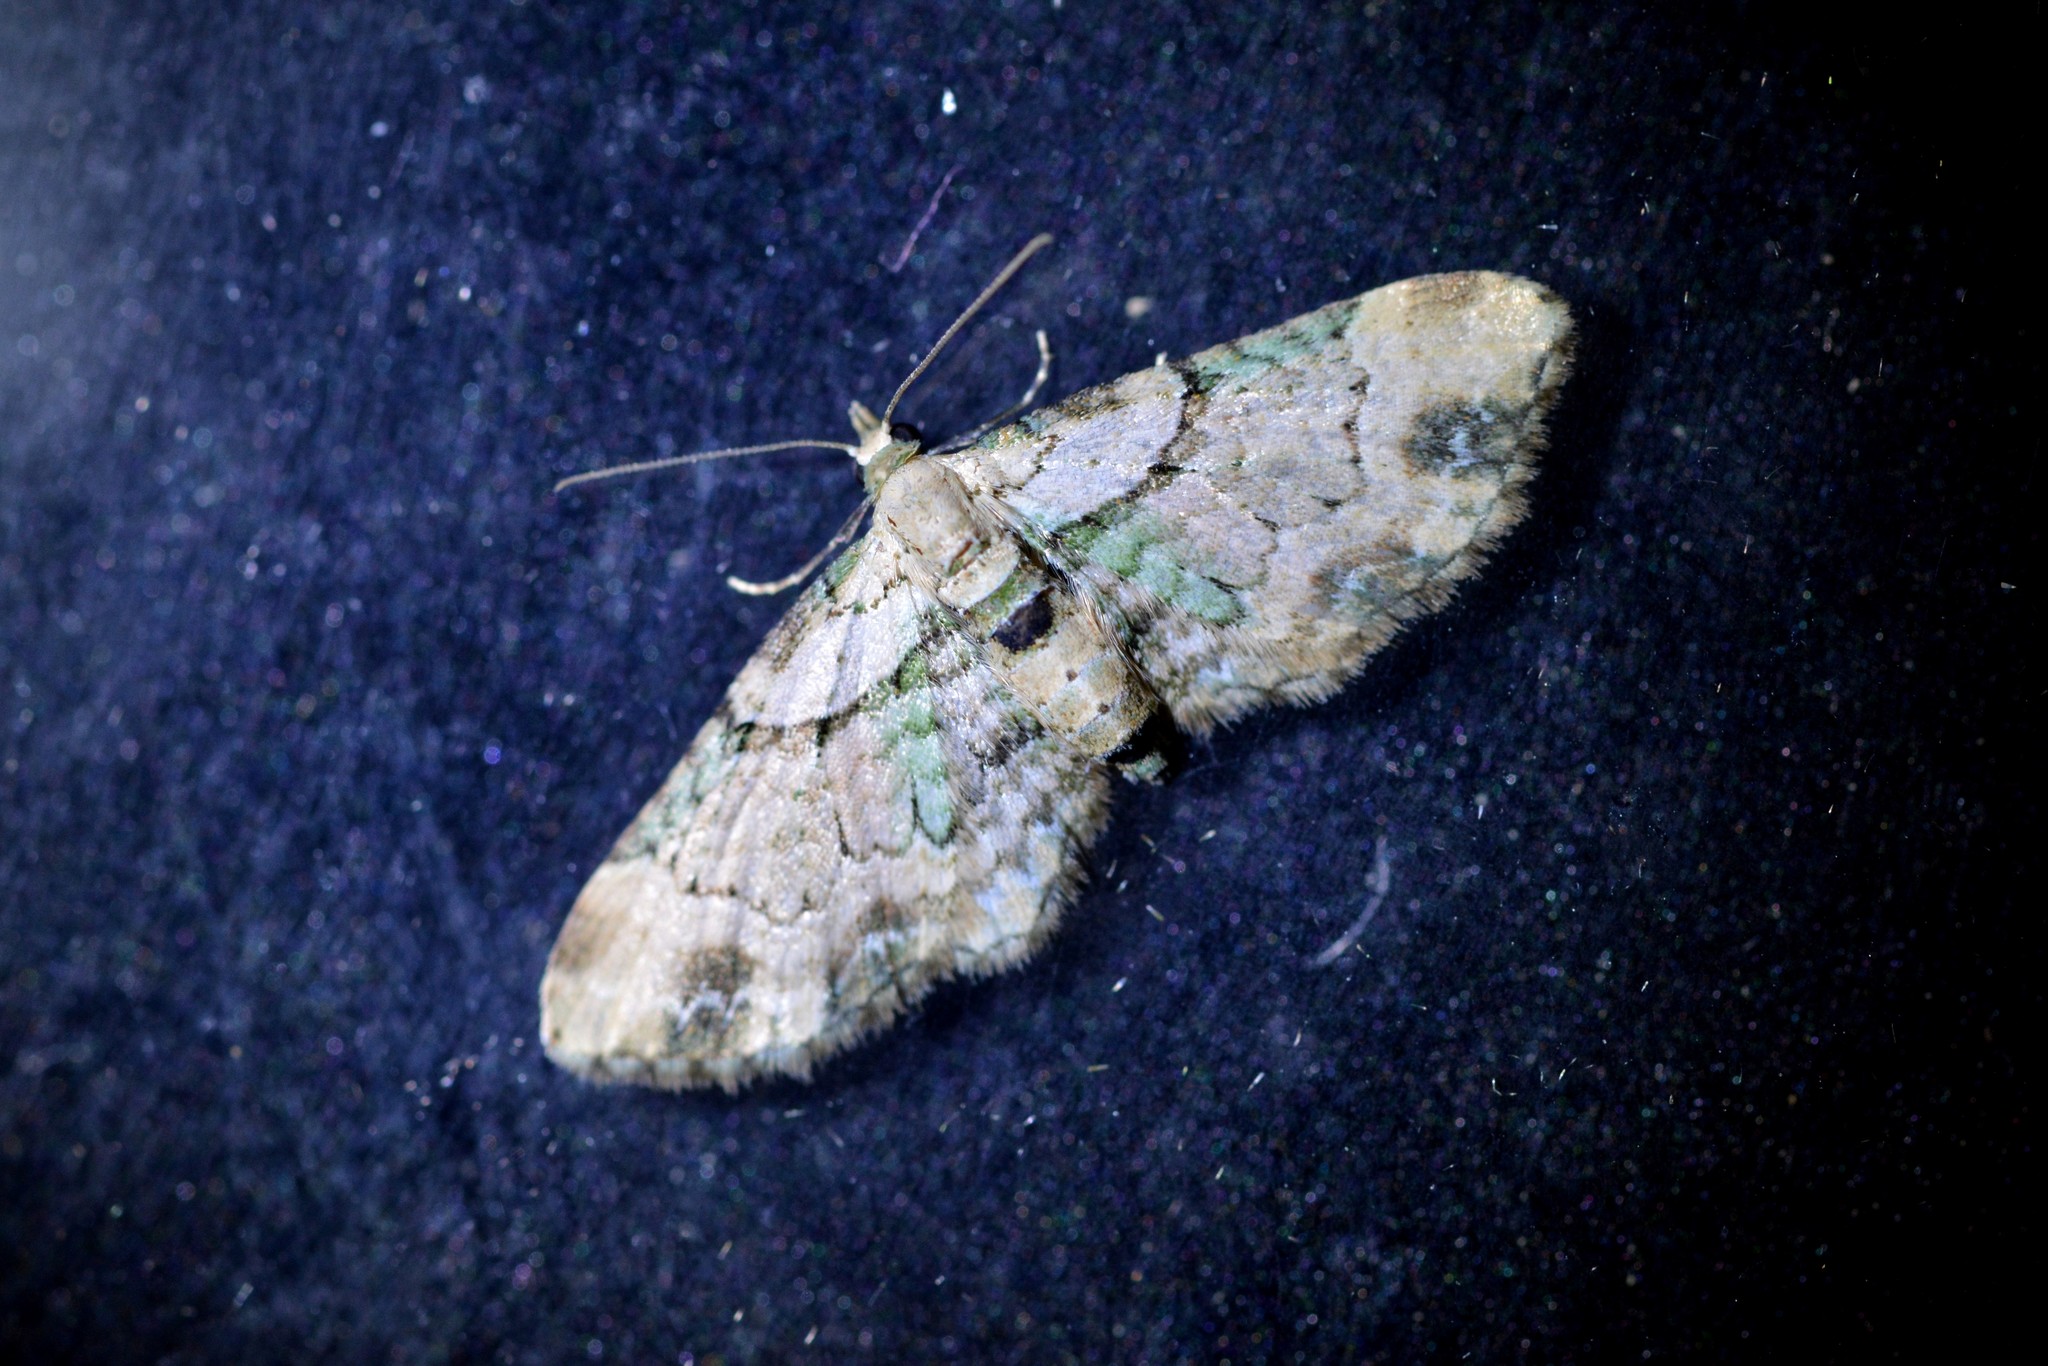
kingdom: Animalia
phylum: Arthropoda
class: Insecta
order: Lepidoptera
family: Geometridae
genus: Chloroclystis
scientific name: Chloroclystis
